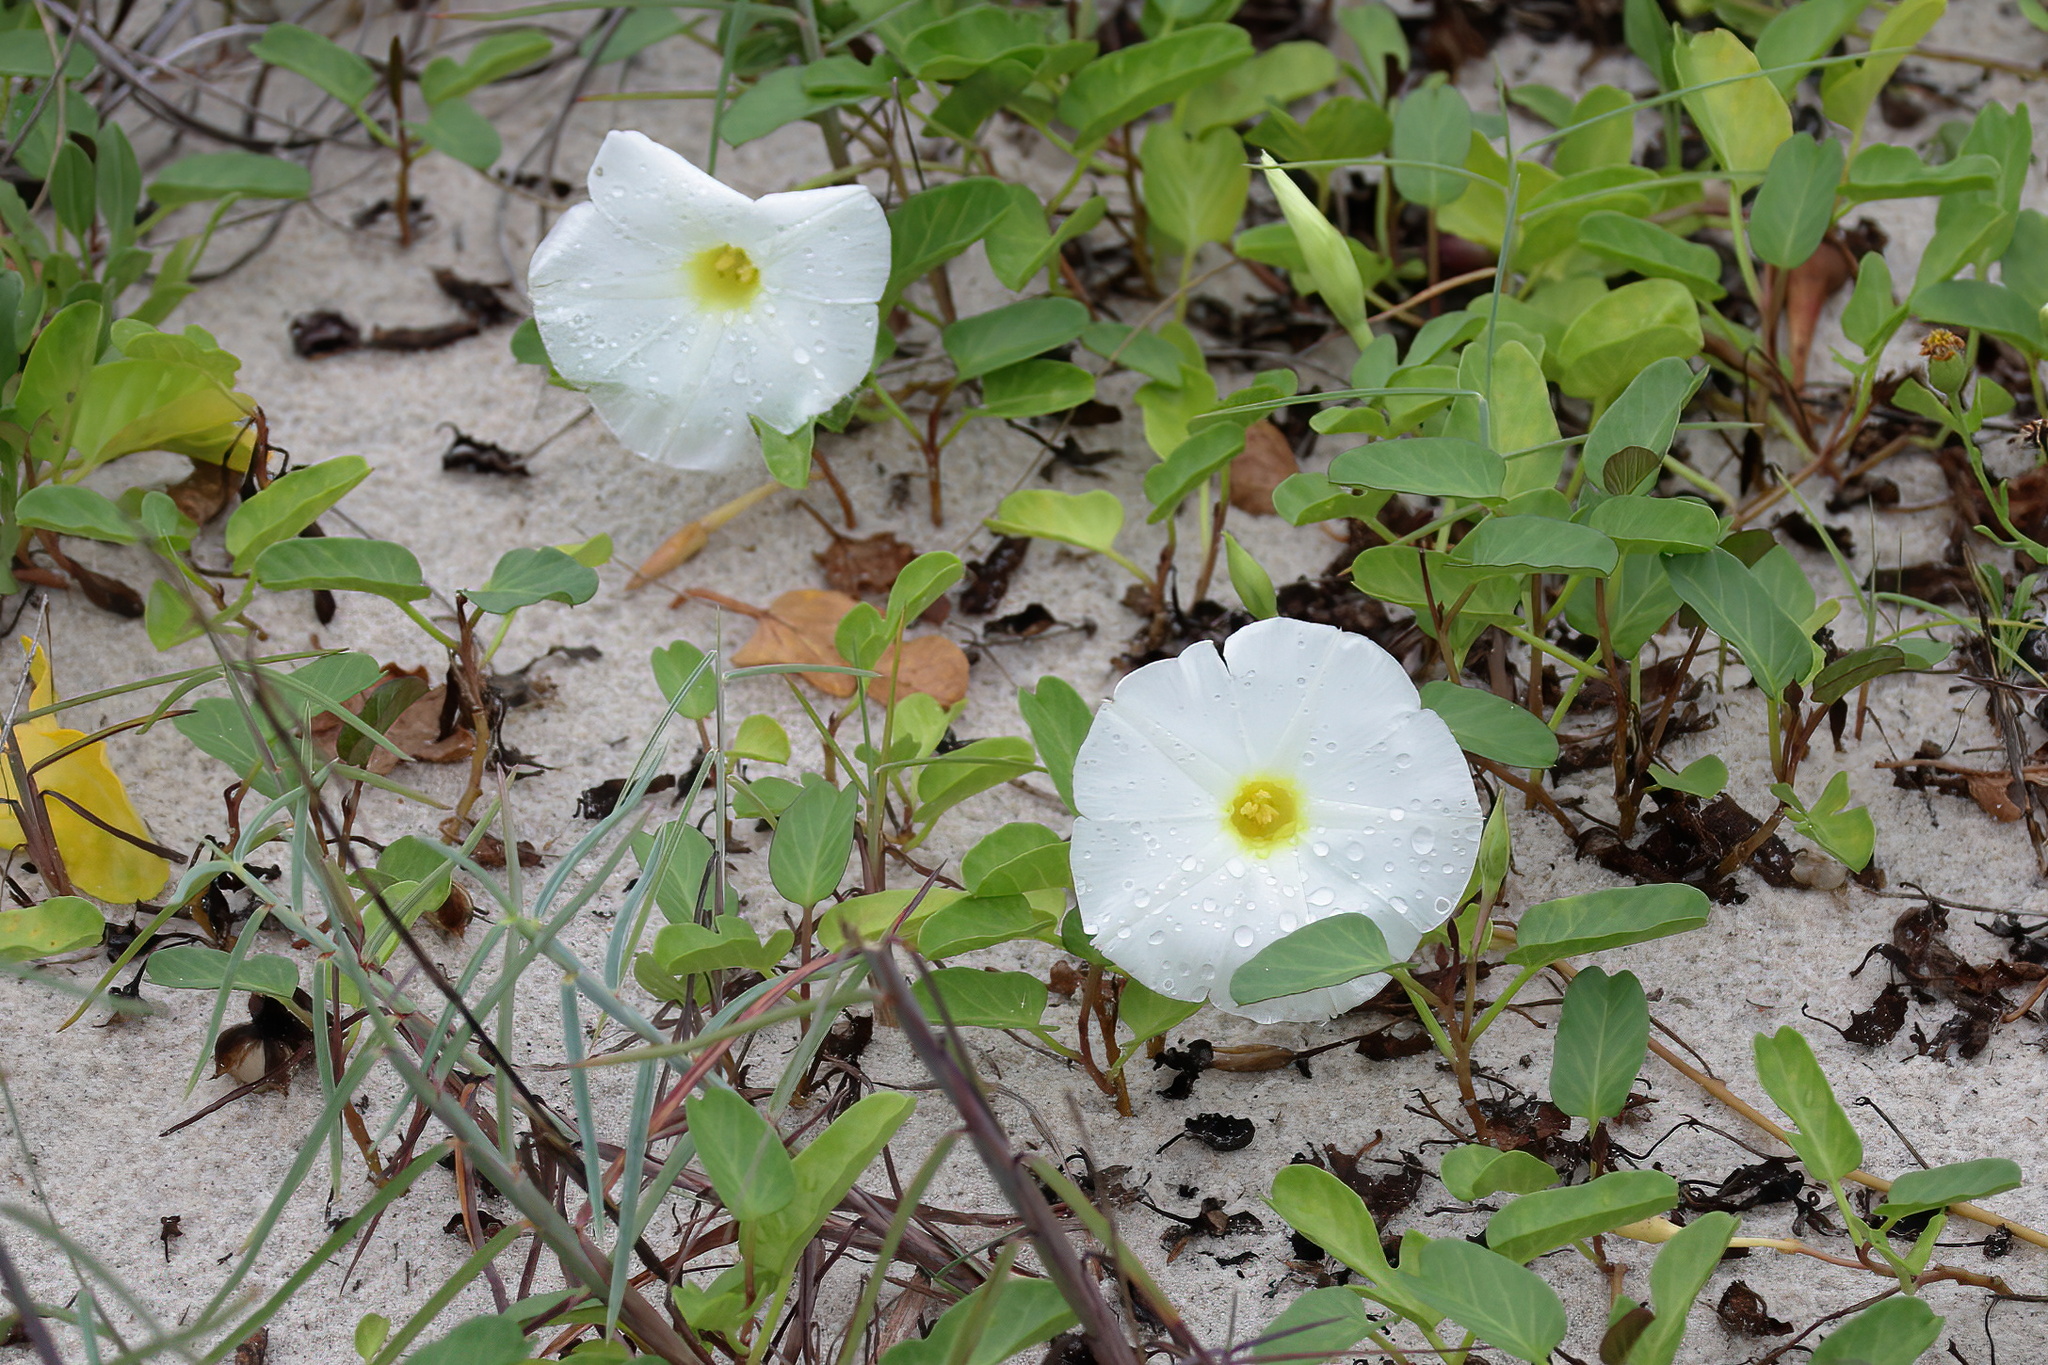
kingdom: Plantae
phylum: Tracheophyta
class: Magnoliopsida
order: Solanales
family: Convolvulaceae
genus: Ipomoea
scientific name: Ipomoea imperati
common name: Fiddle-leaf morning-glory
